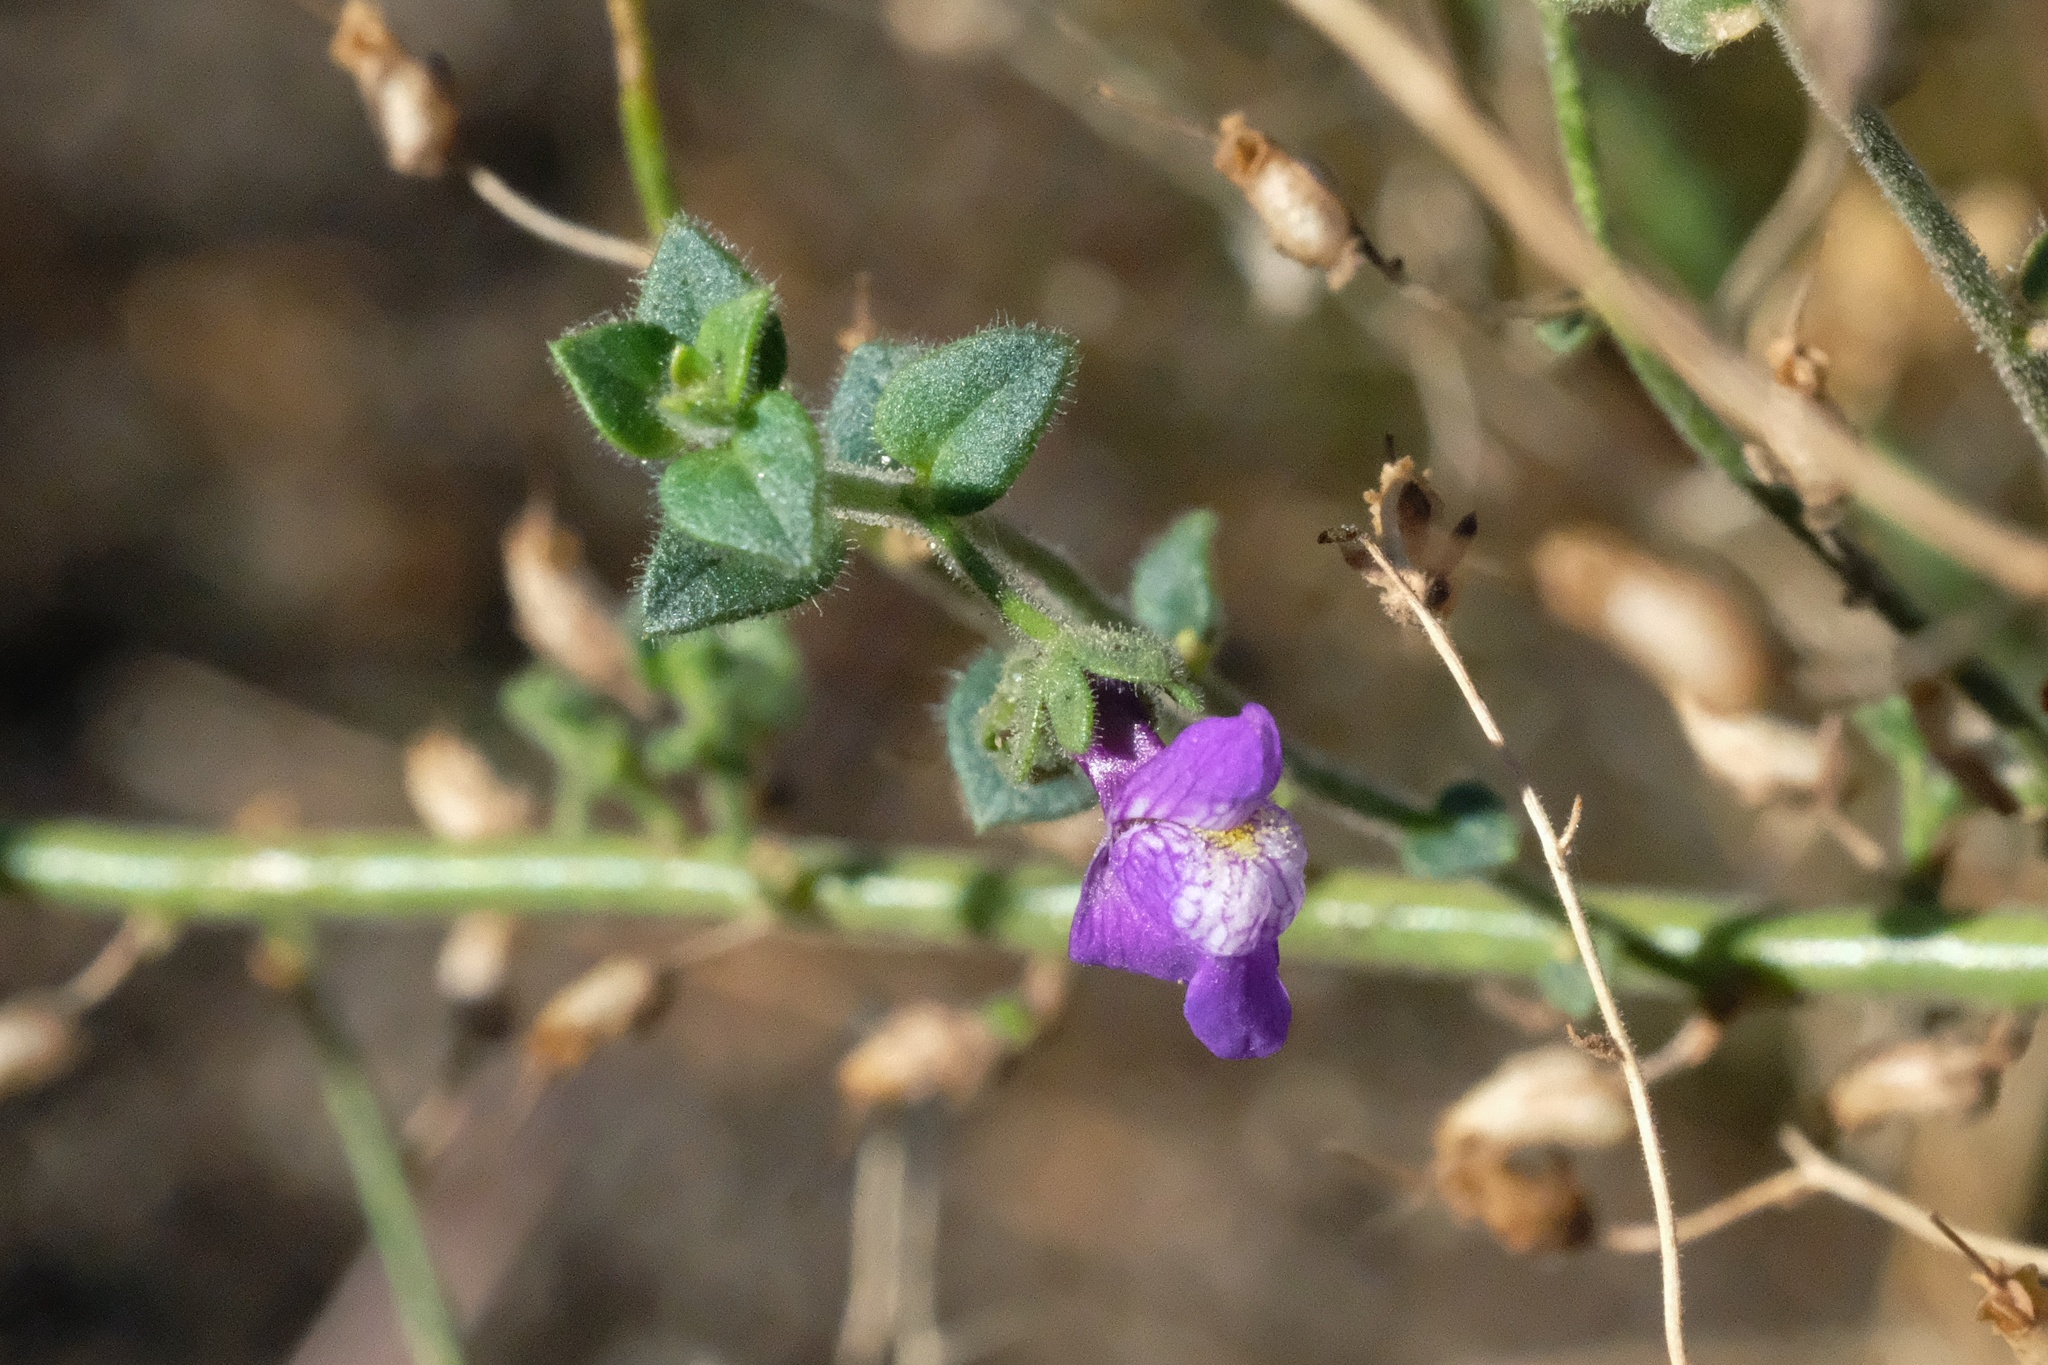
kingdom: Plantae
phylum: Tracheophyta
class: Magnoliopsida
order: Lamiales
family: Plantaginaceae
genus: Sairocarpus
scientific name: Sairocarpus nuttallianus
